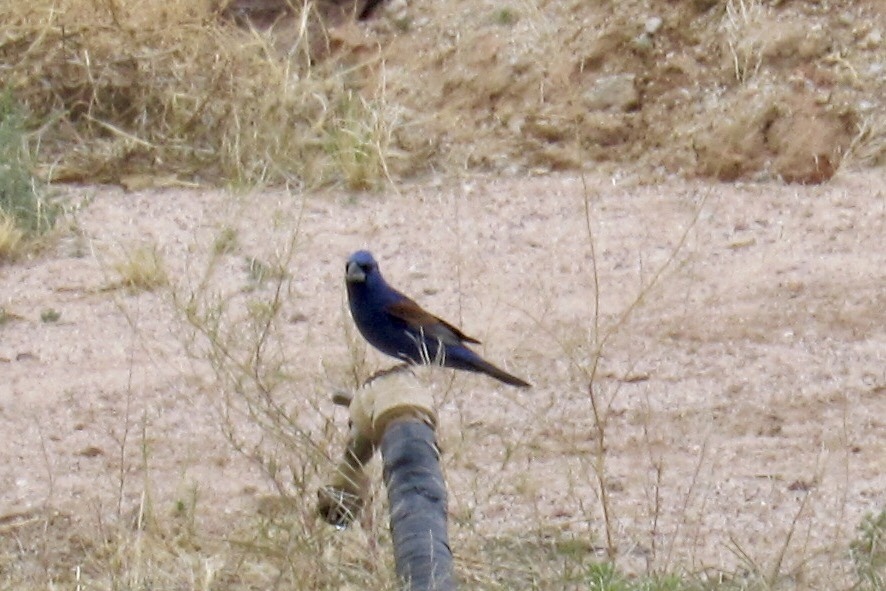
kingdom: Animalia
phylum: Chordata
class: Aves
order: Passeriformes
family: Cardinalidae
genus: Passerina
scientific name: Passerina caerulea
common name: Blue grosbeak
